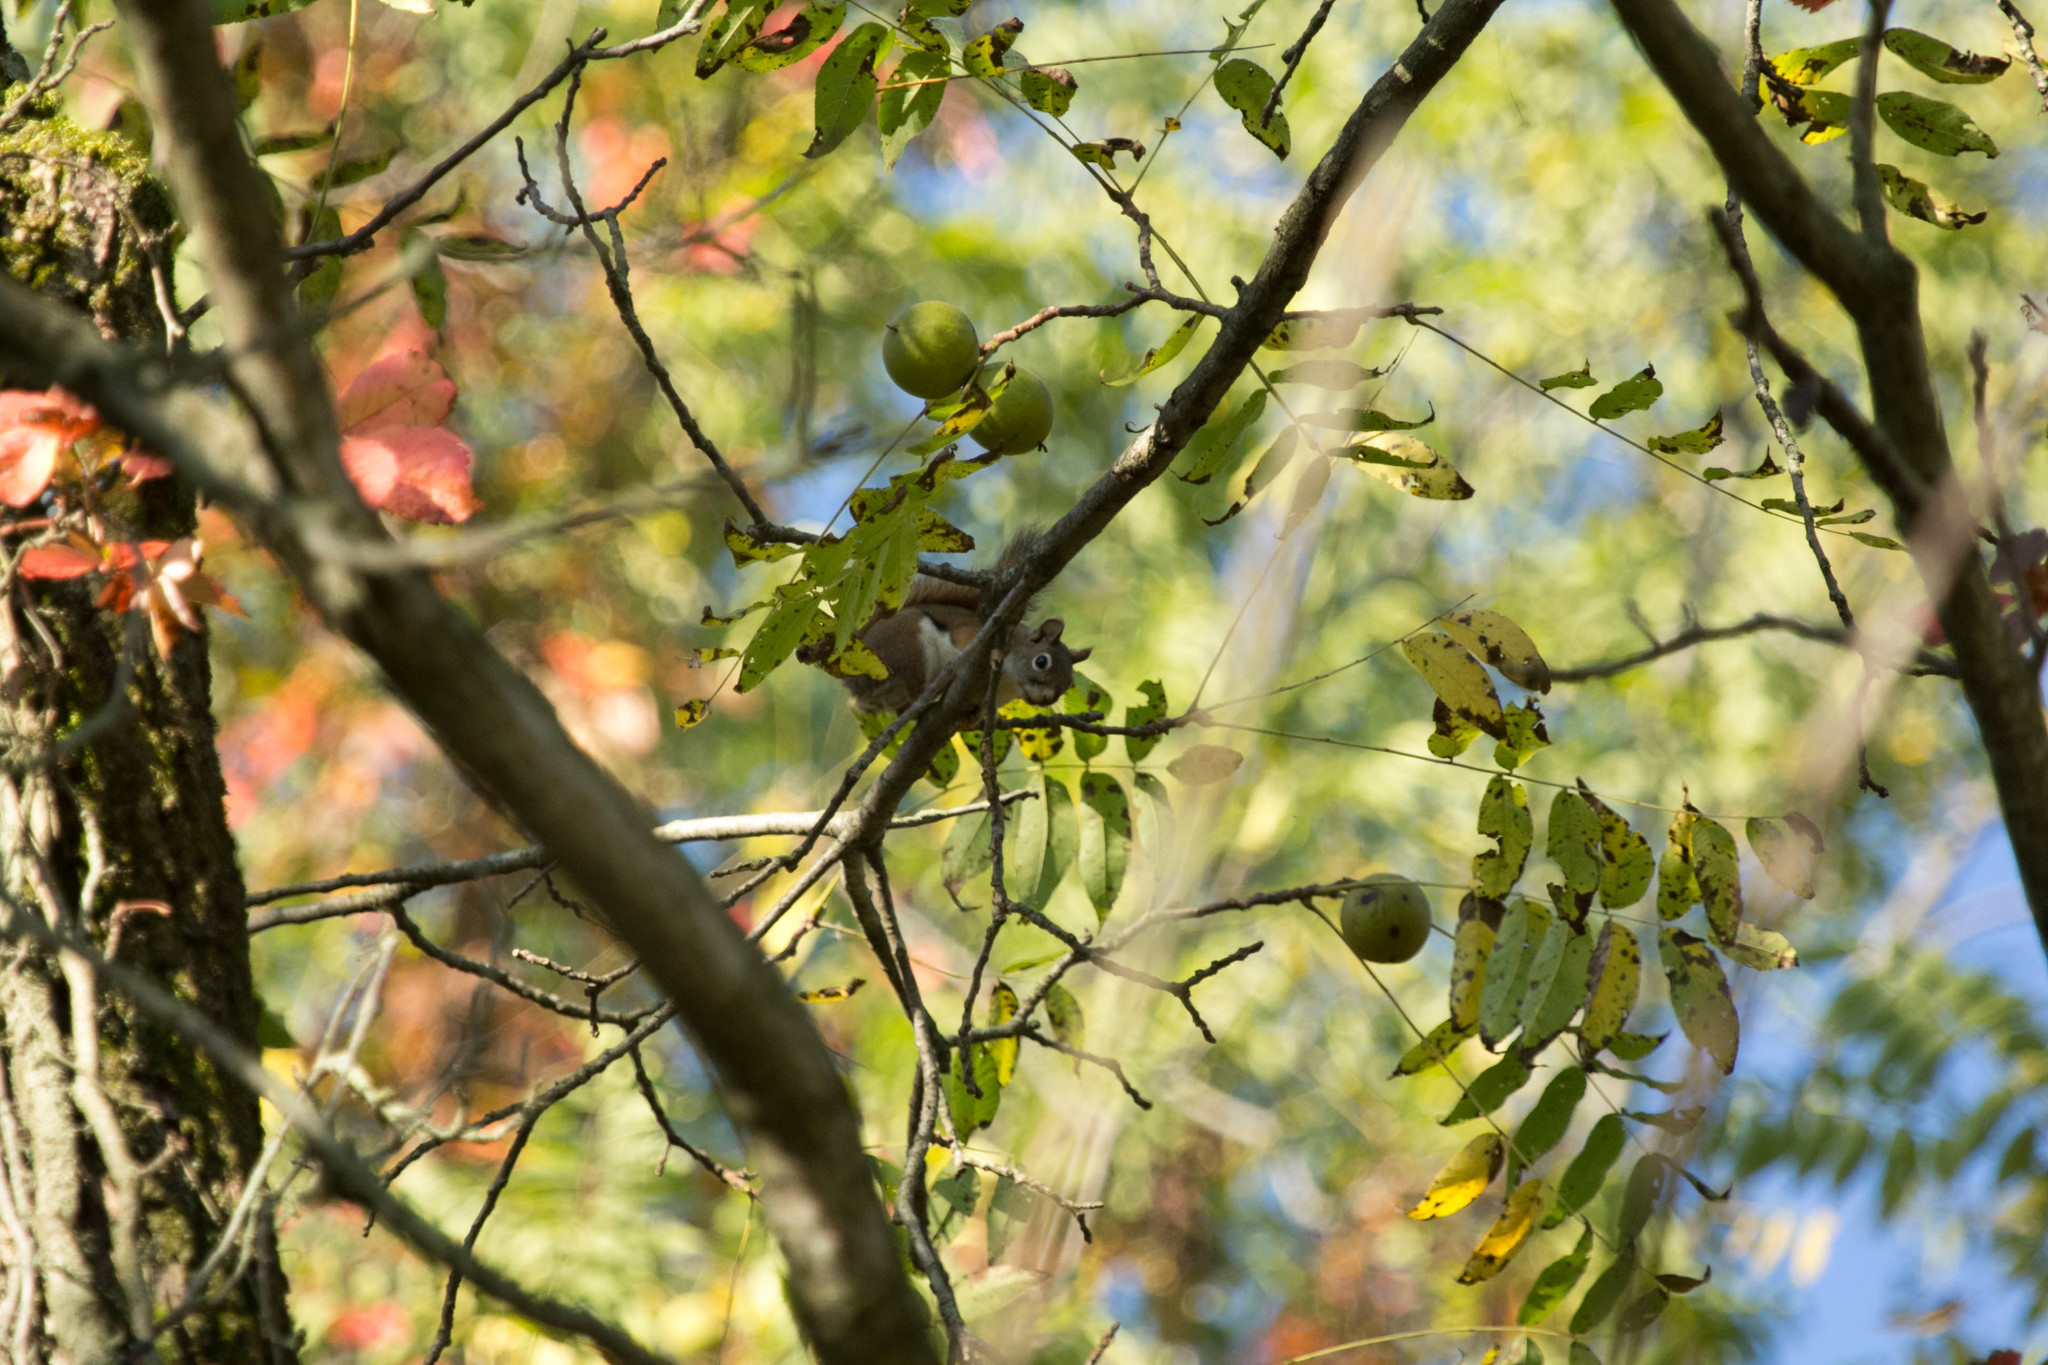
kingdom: Animalia
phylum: Chordata
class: Mammalia
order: Rodentia
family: Sciuridae
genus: Tamiasciurus
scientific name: Tamiasciurus hudsonicus
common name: Red squirrel
